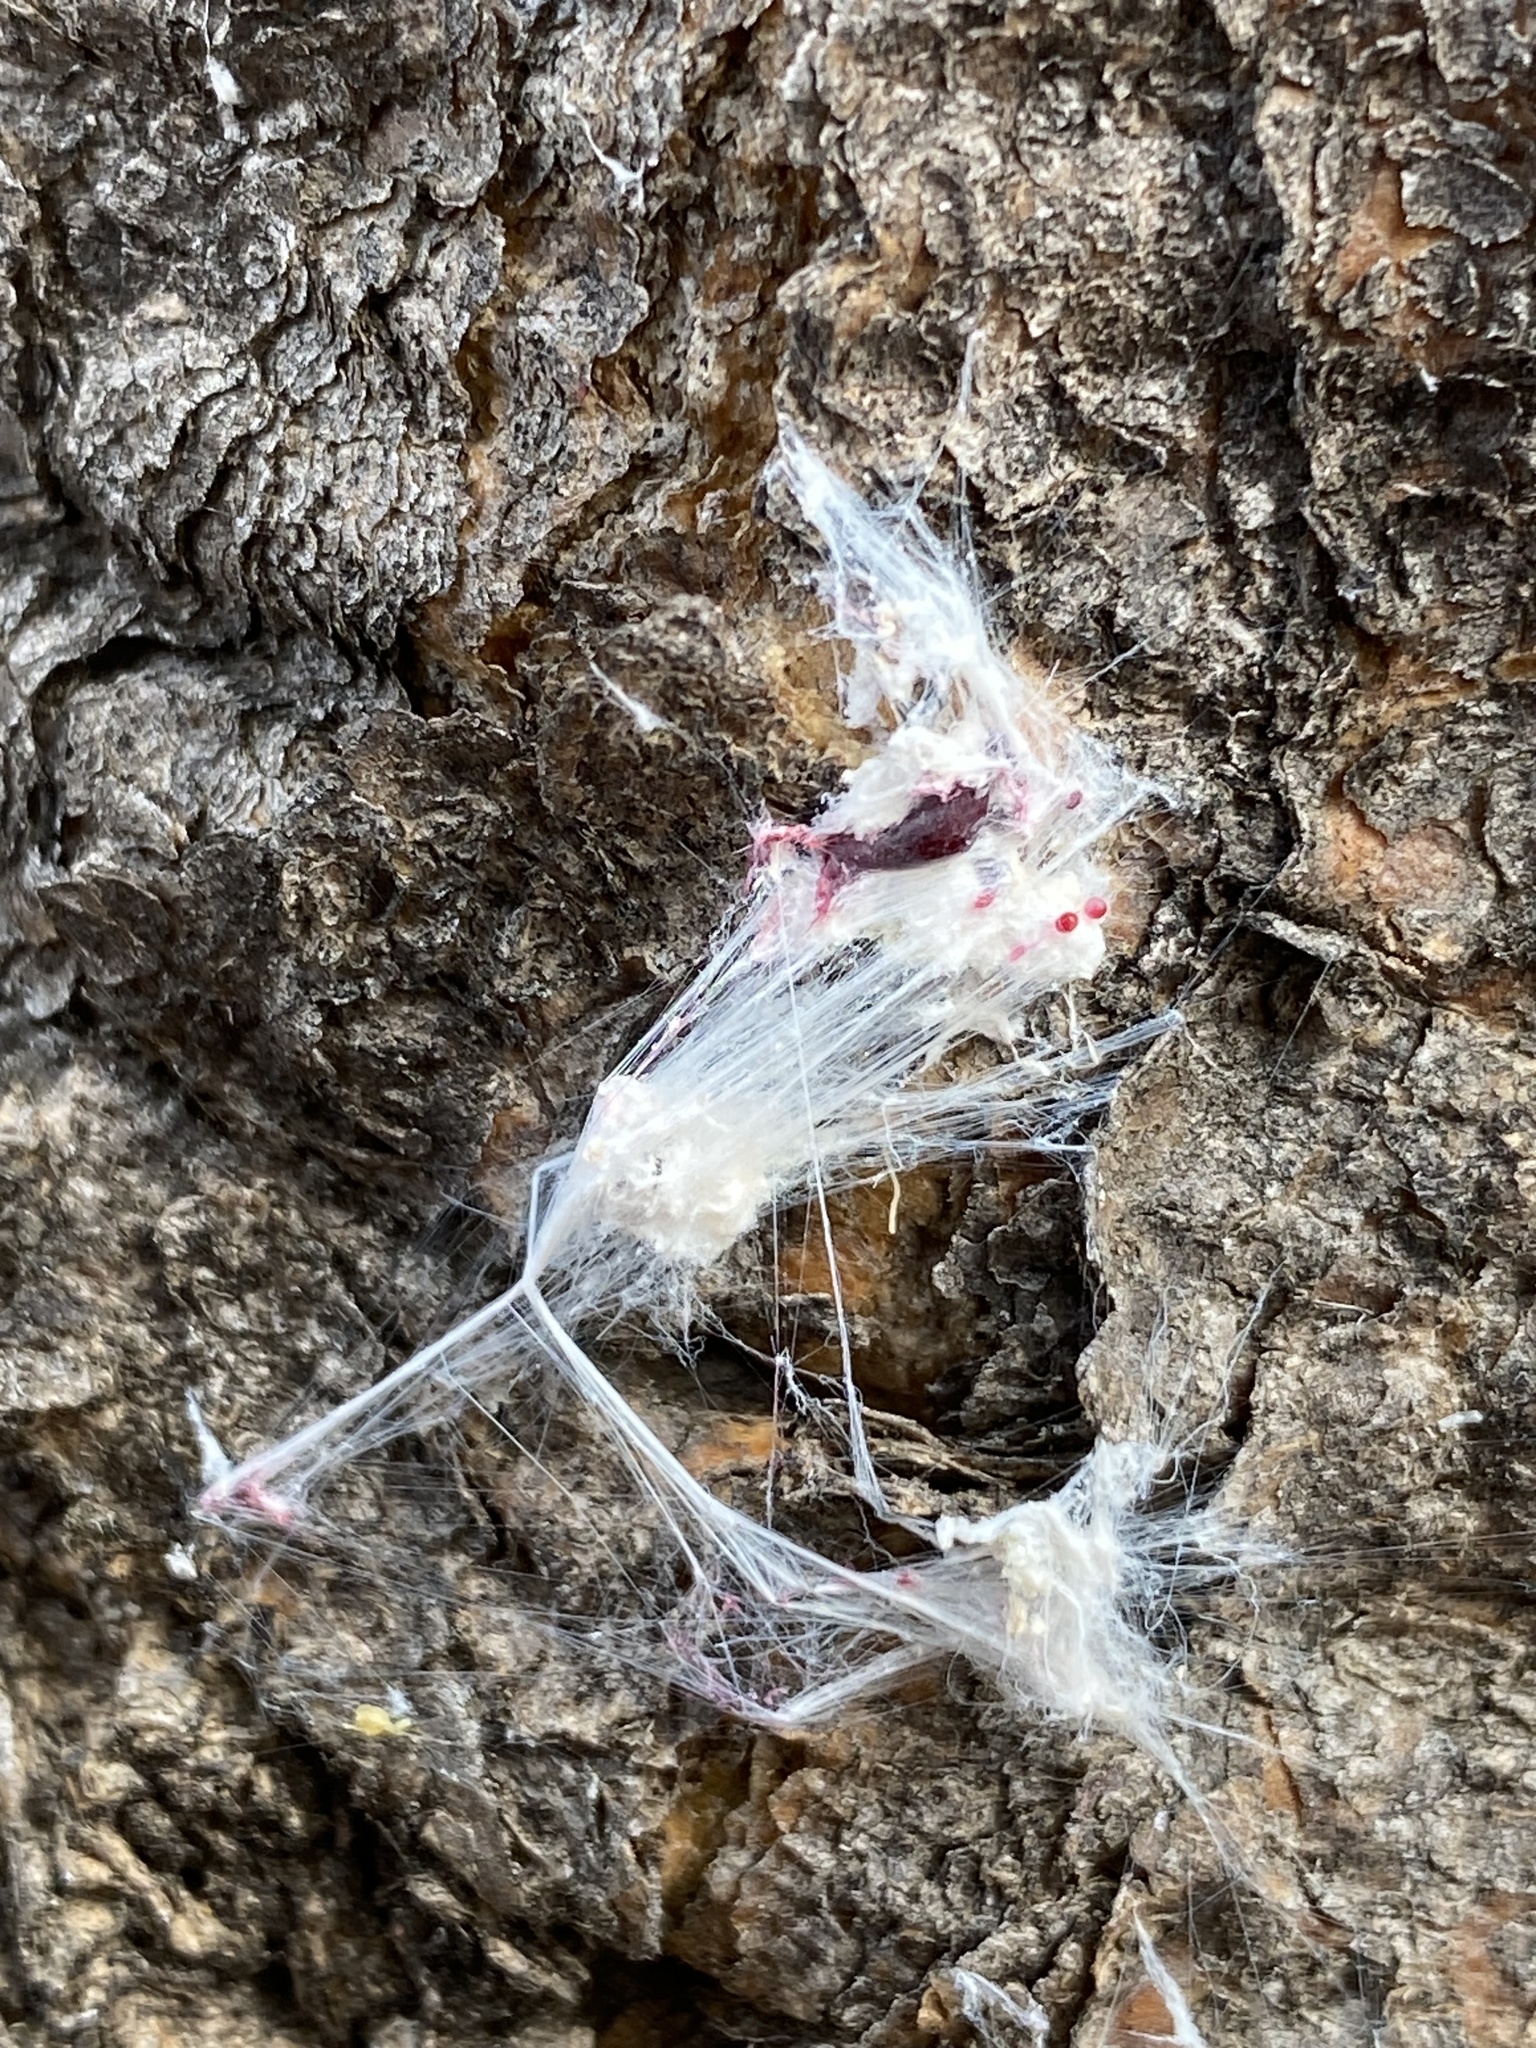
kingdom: Animalia
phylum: Arthropoda
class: Insecta
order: Hemiptera
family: Dactylopiidae
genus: Dactylopius
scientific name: Dactylopius opuntiae
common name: Opuntia cochineal scale
